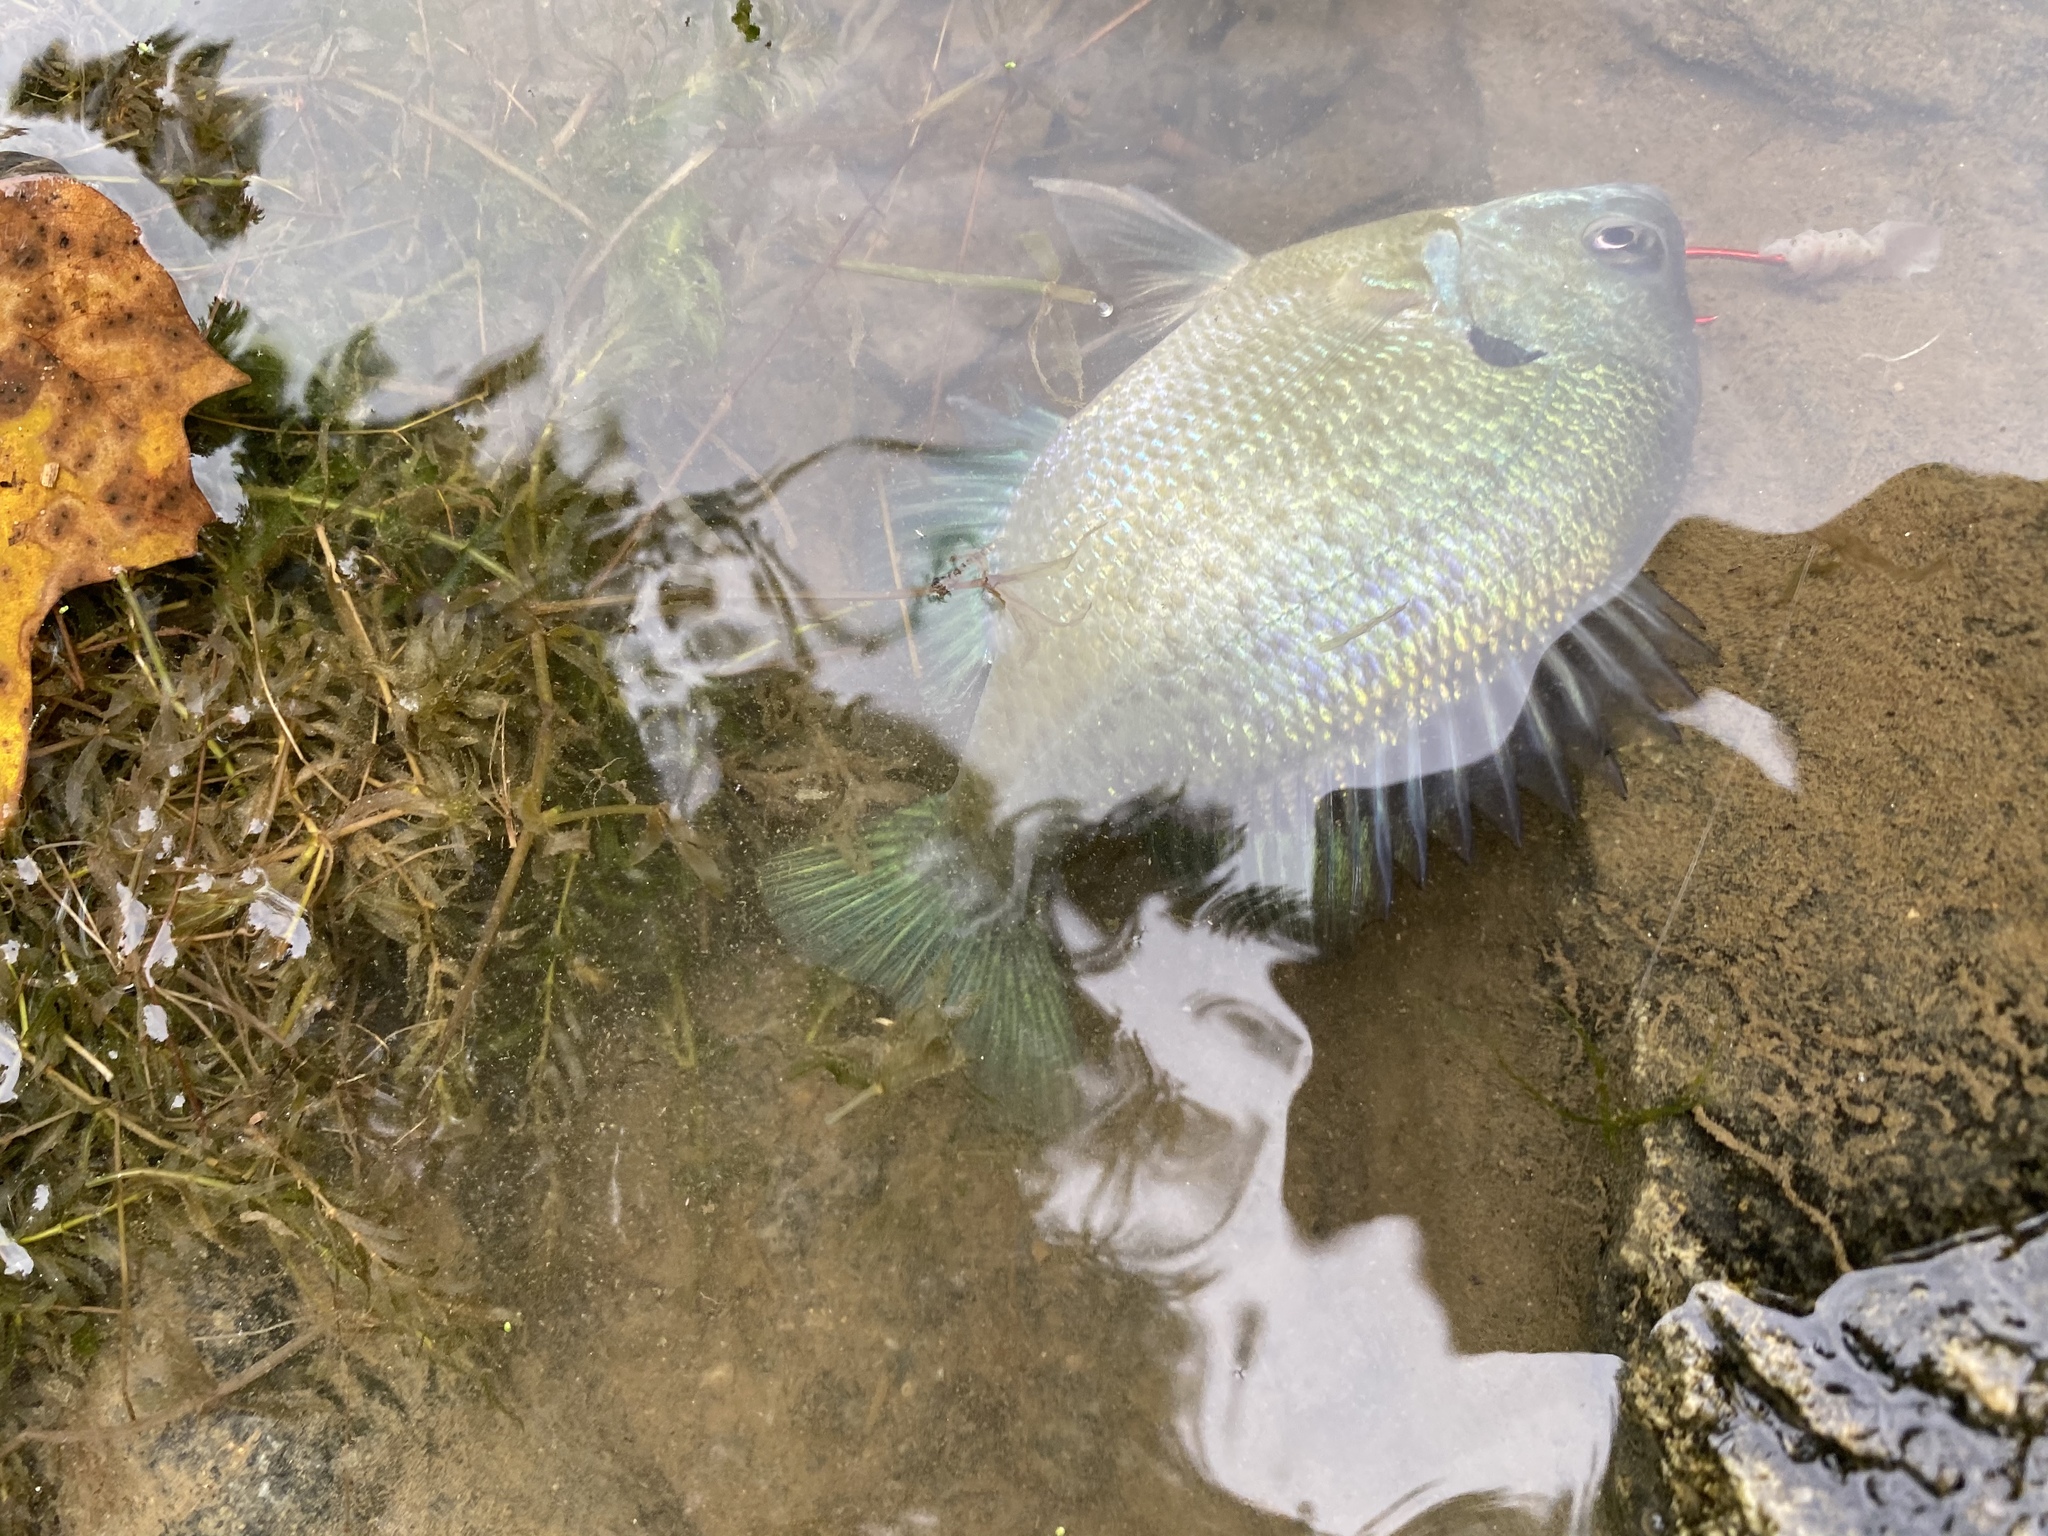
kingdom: Animalia
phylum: Chordata
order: Perciformes
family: Centrarchidae
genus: Lepomis
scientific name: Lepomis macrochirus
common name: Bluegill
